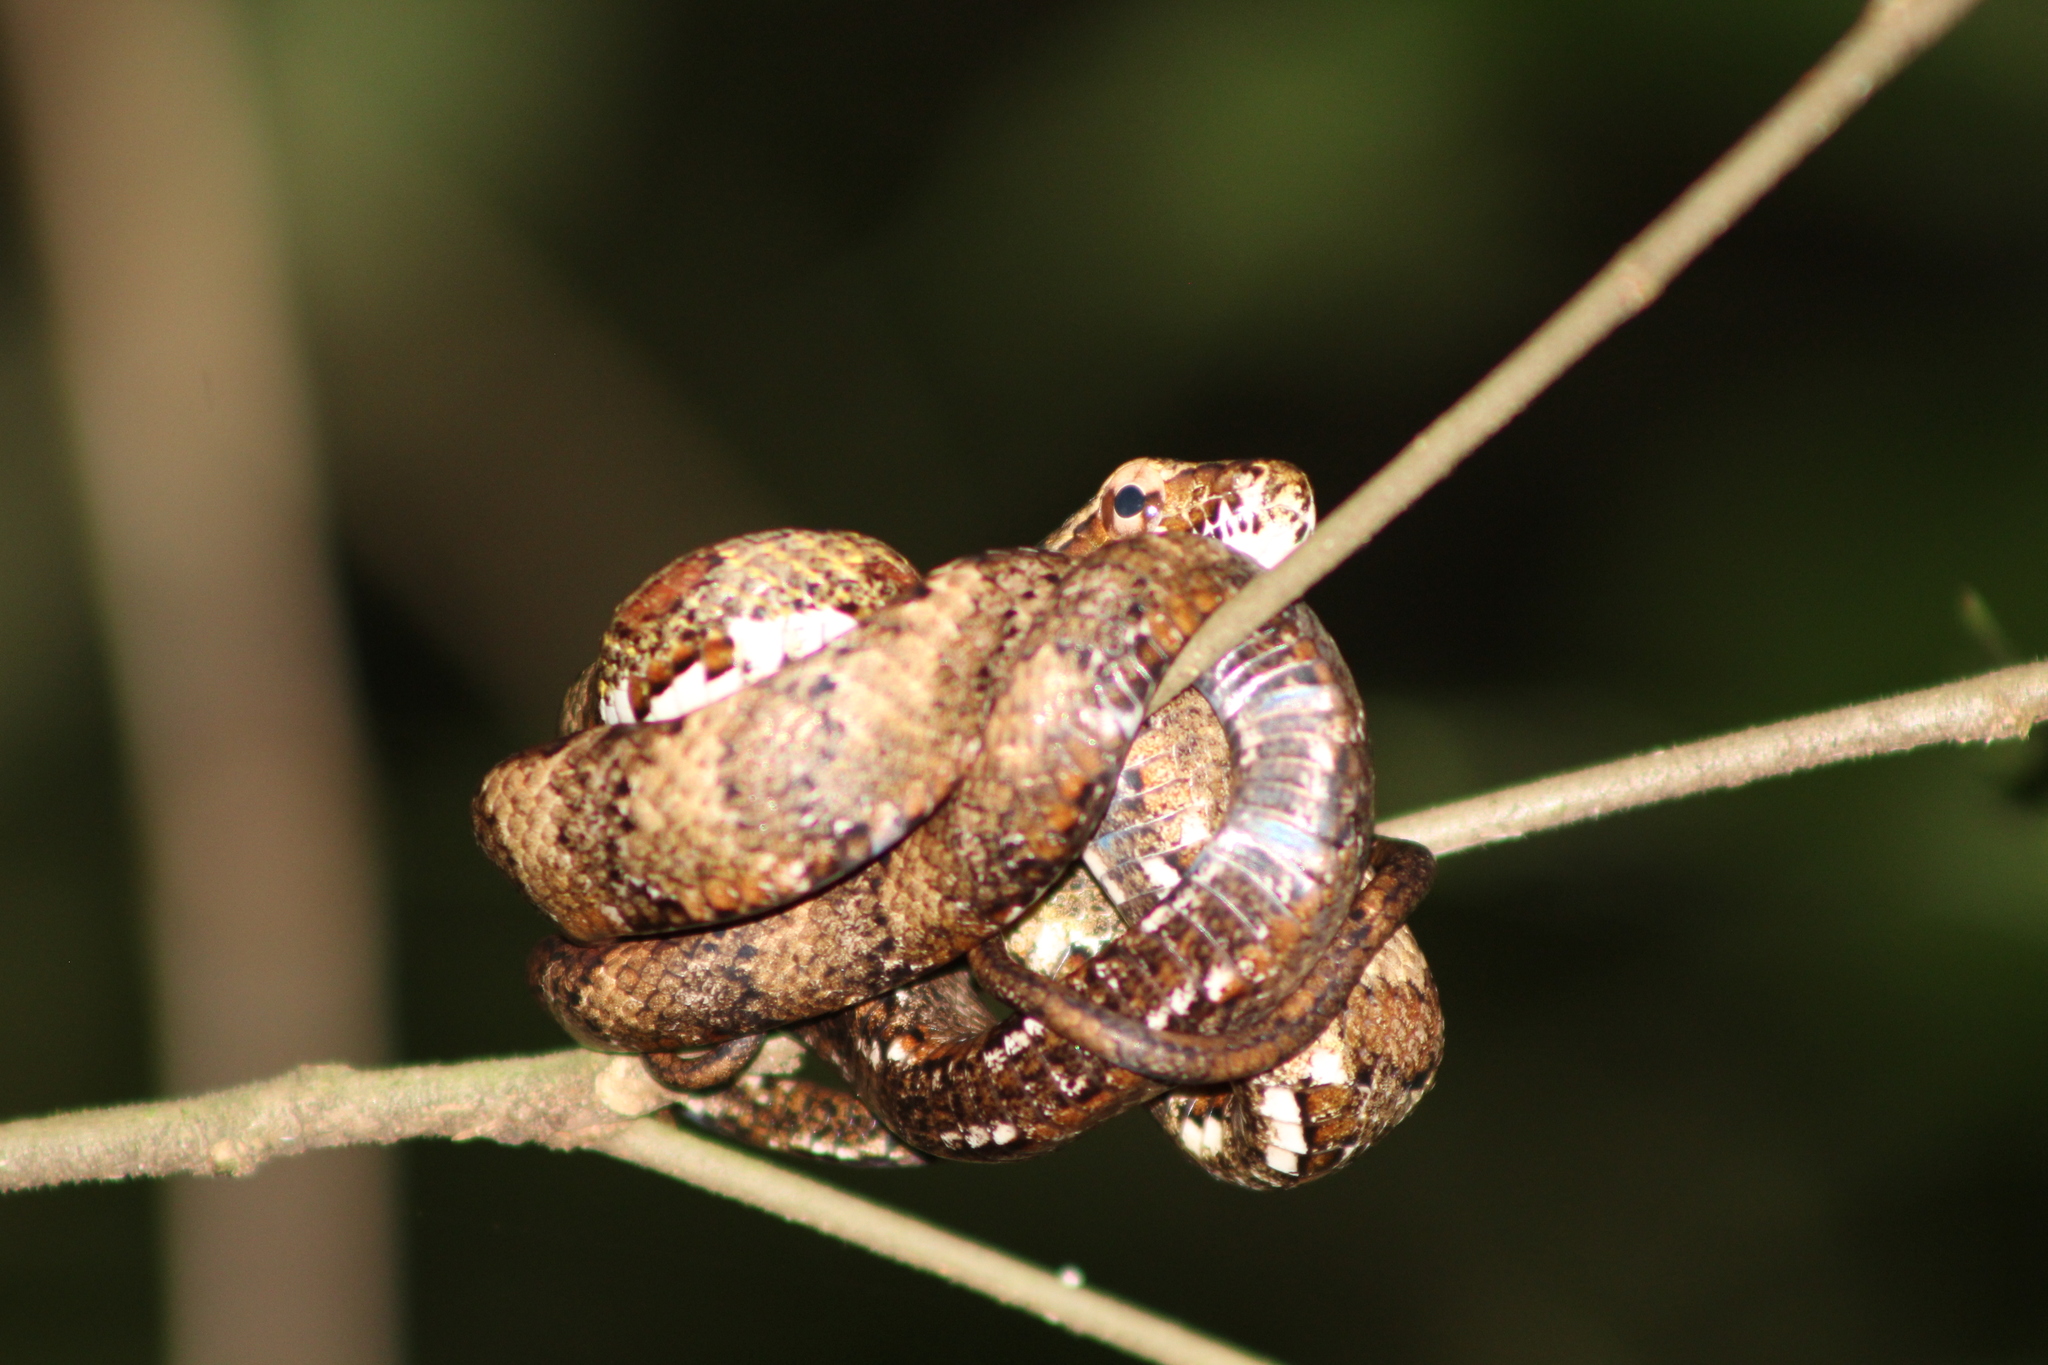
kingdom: Animalia
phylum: Chordata
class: Squamata
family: Colubridae
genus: Phrynonax
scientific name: Phrynonax poecilonotus
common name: Puffing snake
